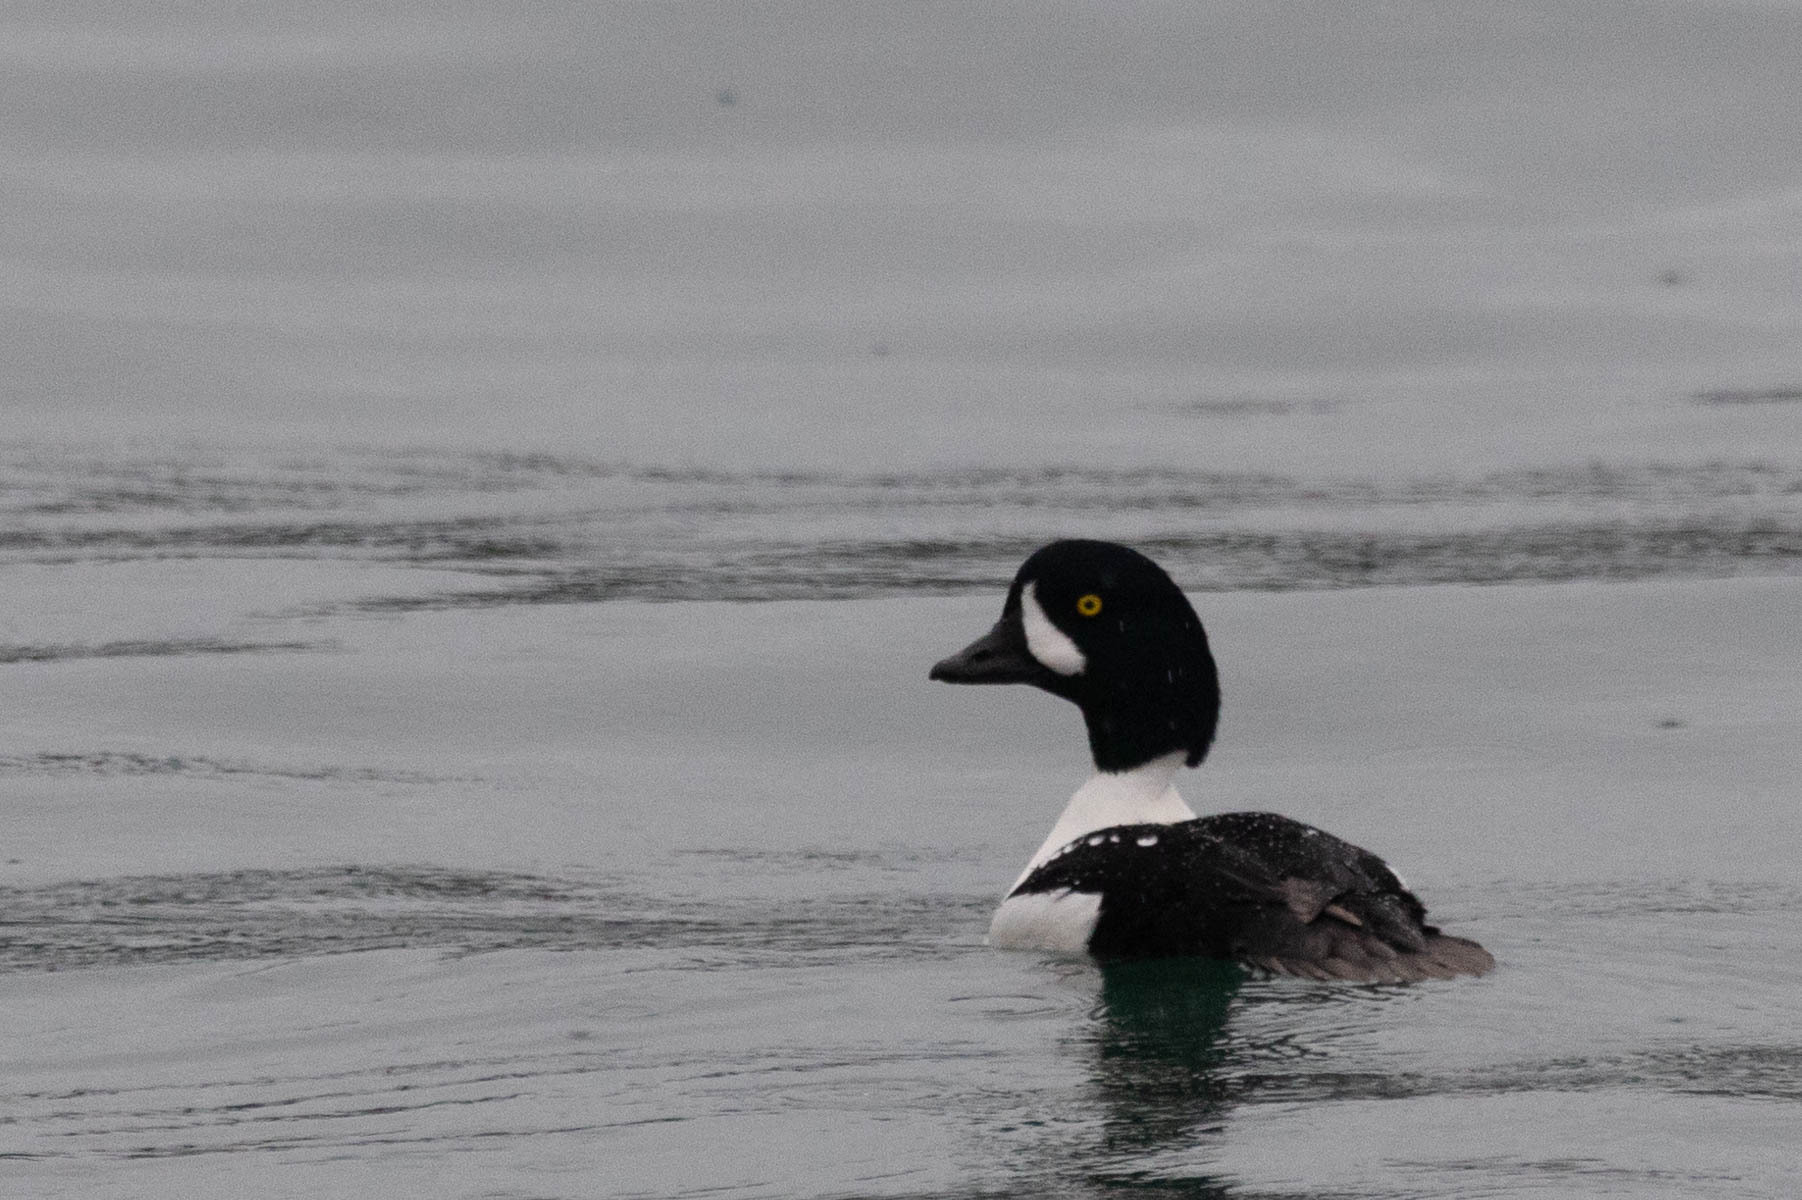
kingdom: Animalia
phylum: Chordata
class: Aves
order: Anseriformes
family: Anatidae
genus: Bucephala
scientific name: Bucephala islandica
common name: Barrow's goldeneye
